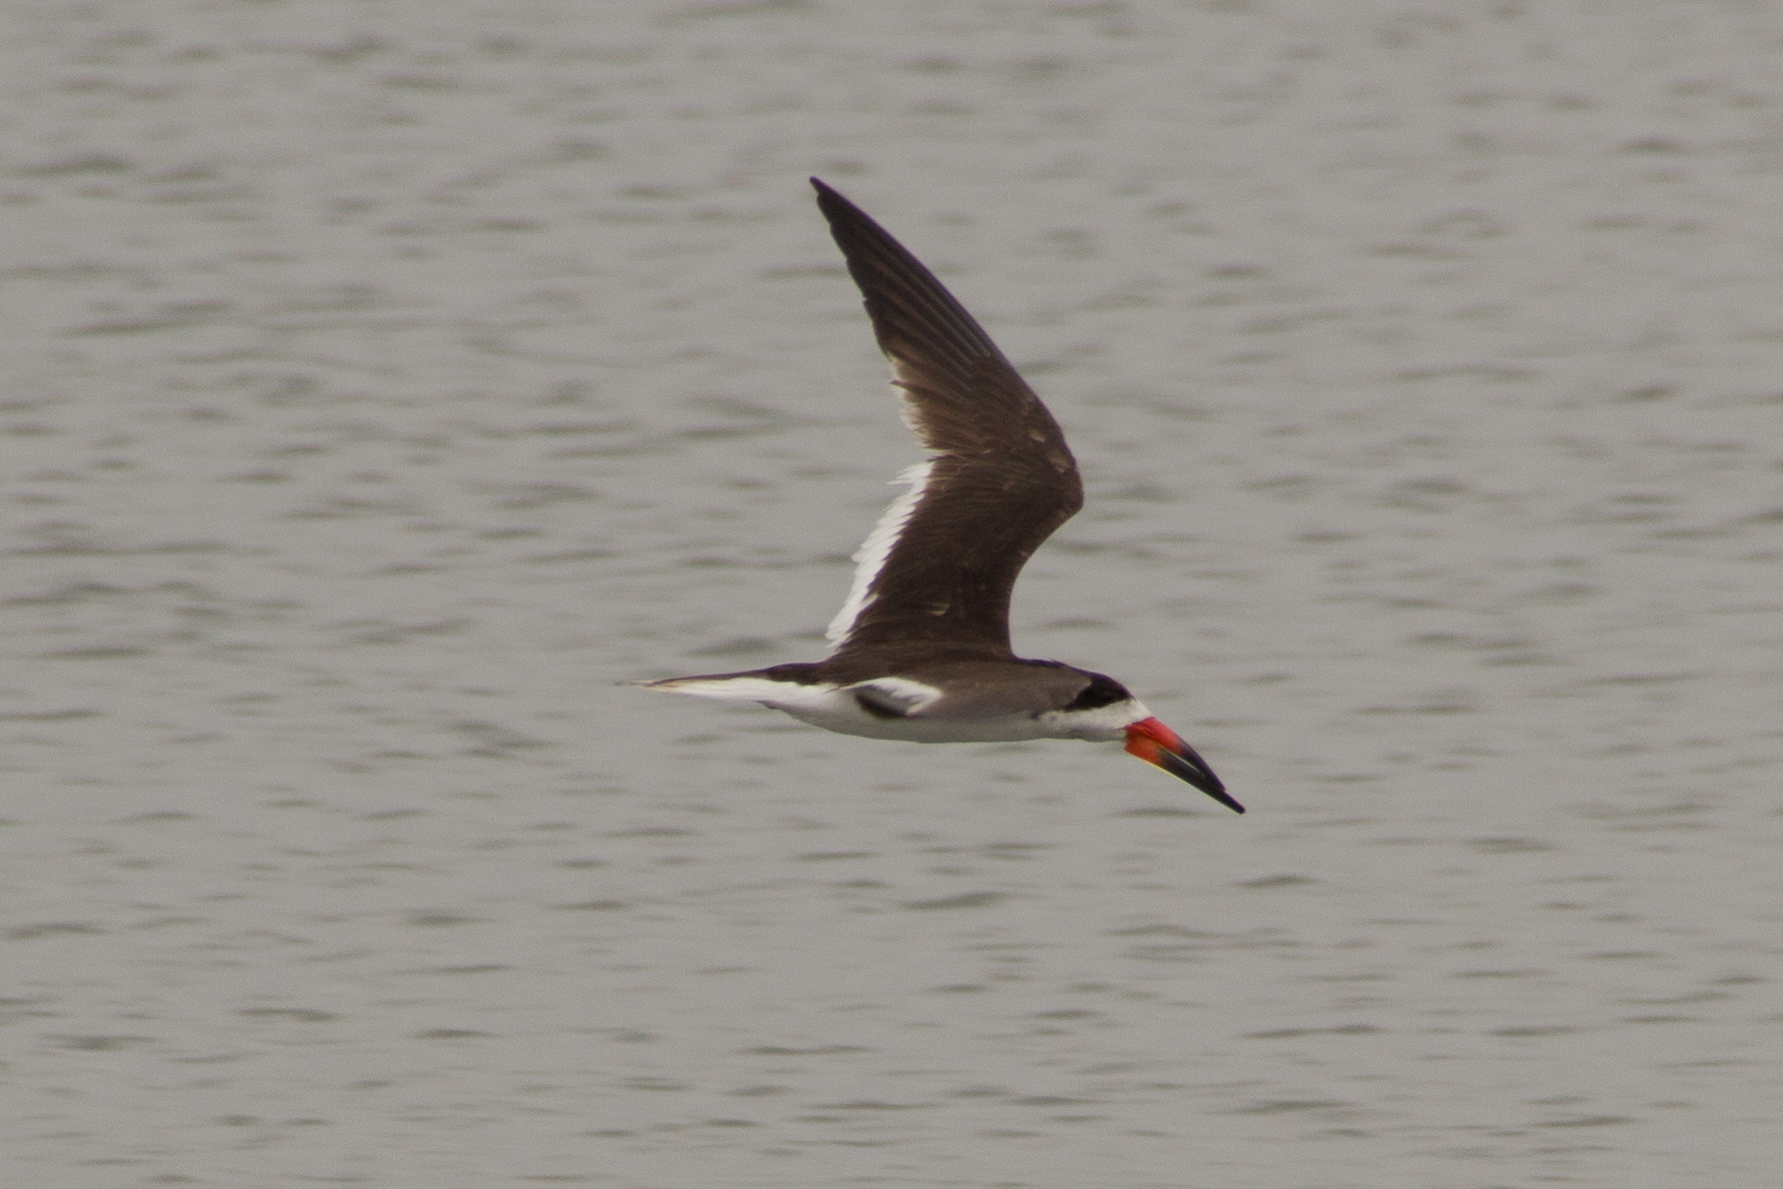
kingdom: Animalia
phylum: Chordata
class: Aves
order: Charadriiformes
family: Laridae
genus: Rynchops
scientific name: Rynchops niger
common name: Black skimmer
